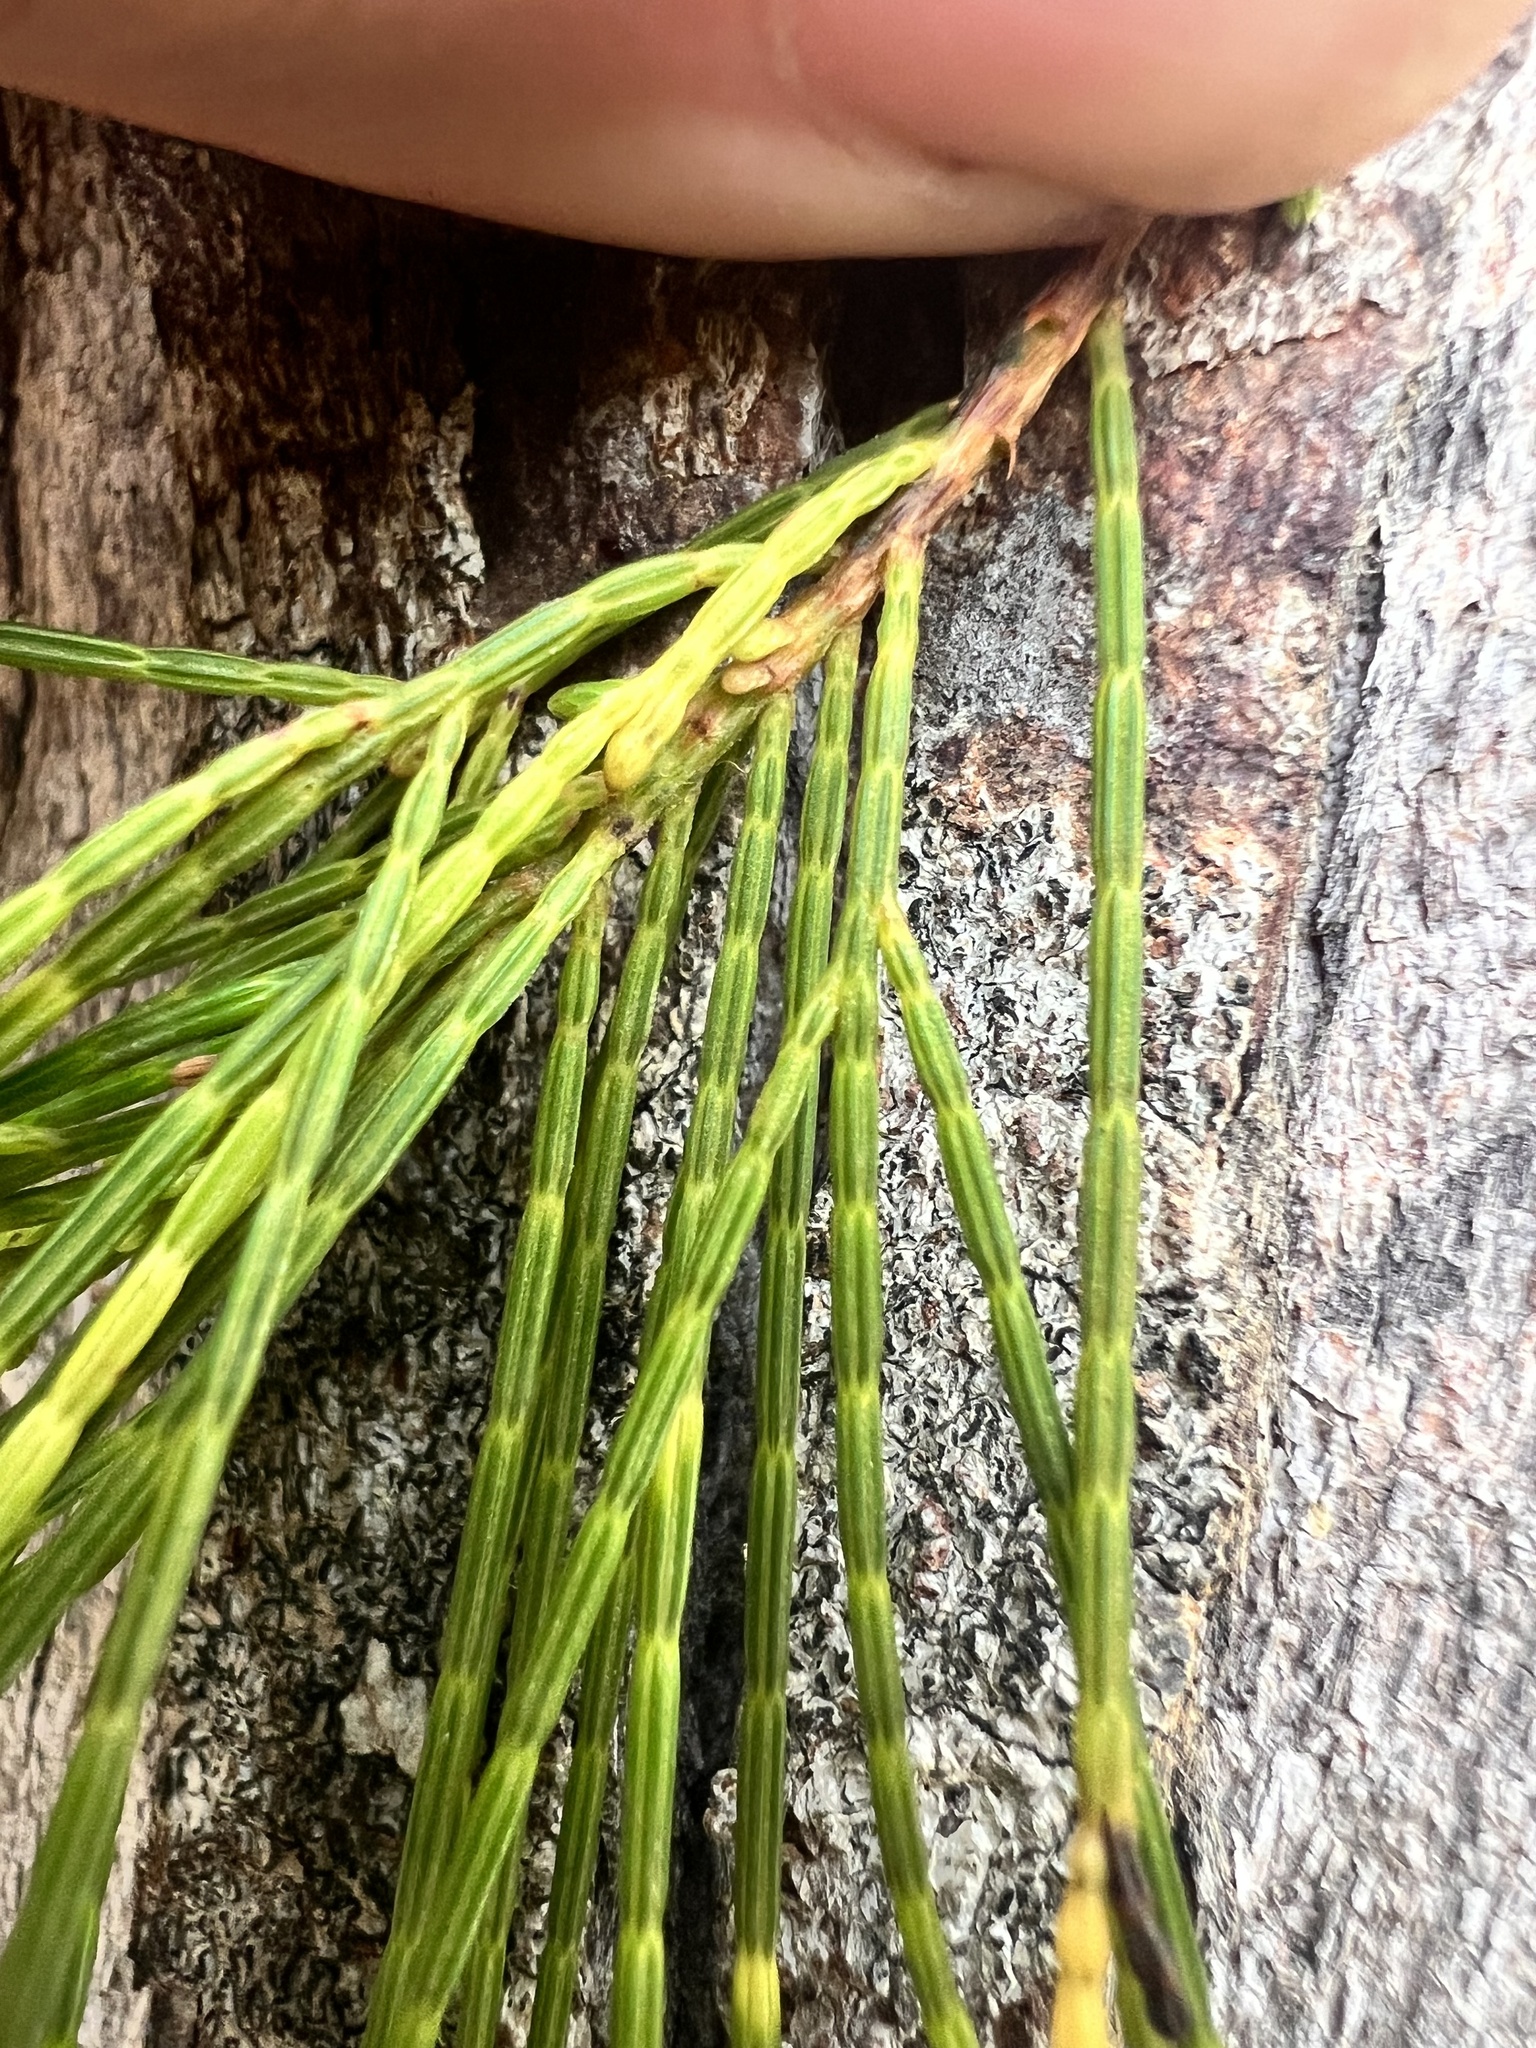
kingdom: Plantae
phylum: Tracheophyta
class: Magnoliopsida
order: Fagales
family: Casuarinaceae
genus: Casuarina
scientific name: Casuarina equisetifolia
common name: Beach sheoak
